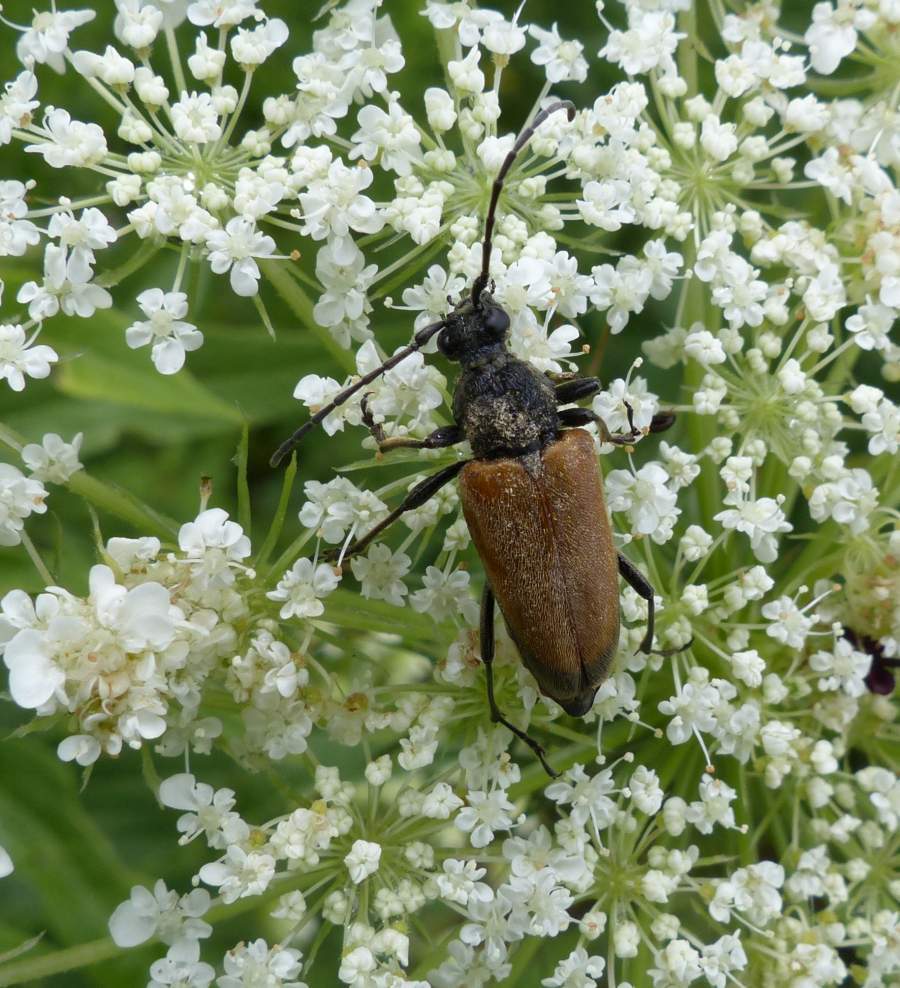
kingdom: Animalia
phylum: Arthropoda
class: Insecta
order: Coleoptera
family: Cerambycidae
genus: Trigonarthris
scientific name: Trigonarthris proxima
